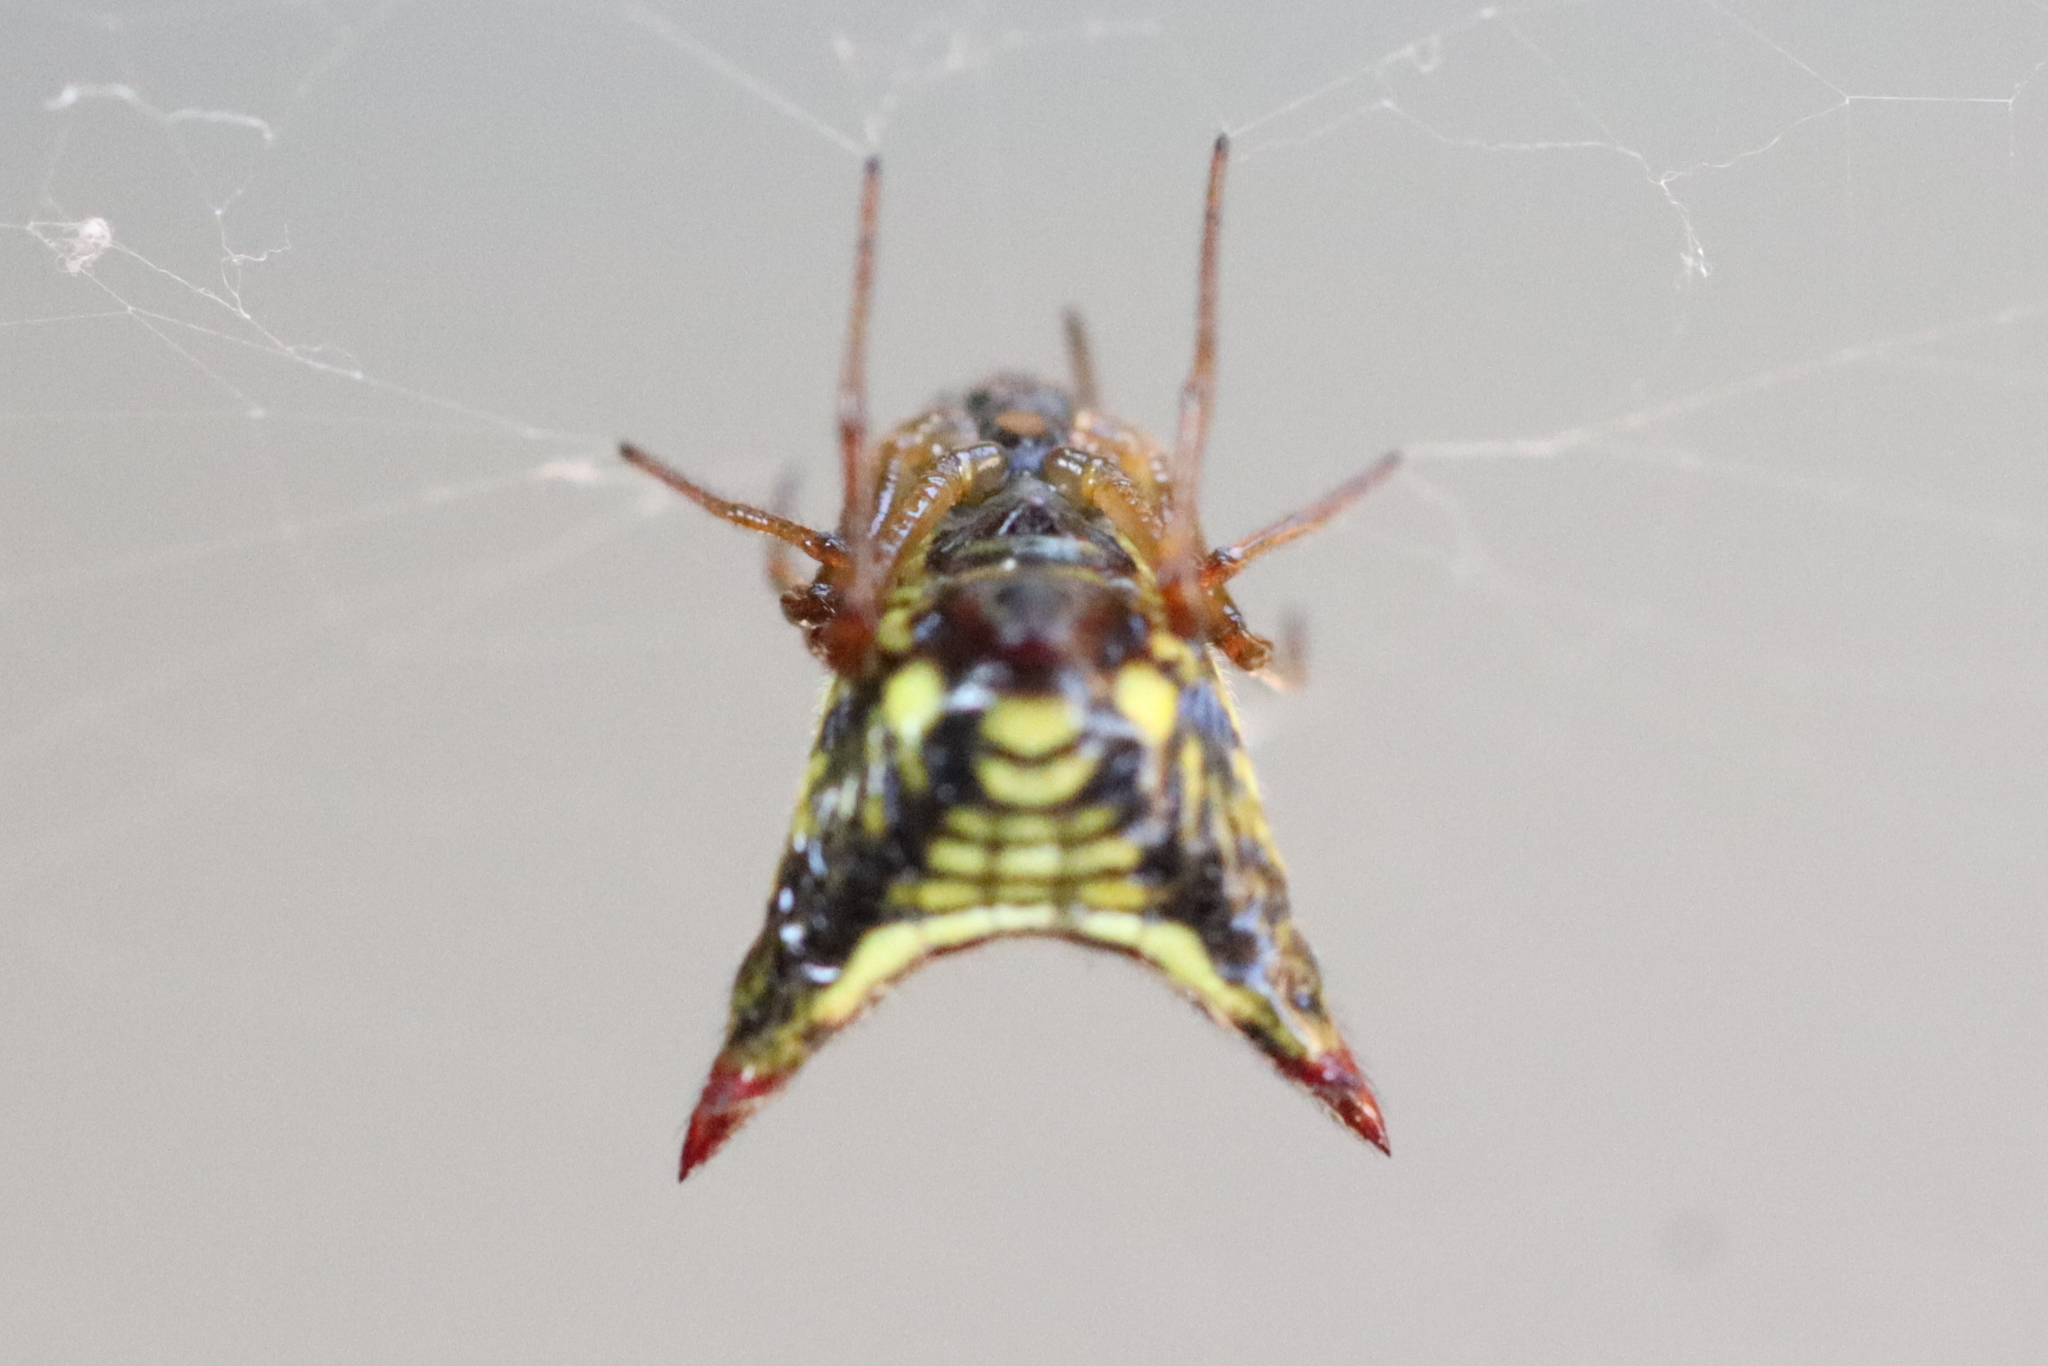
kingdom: Animalia
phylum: Arthropoda
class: Arachnida
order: Araneae
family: Araneidae
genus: Micrathena
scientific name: Micrathena plana
